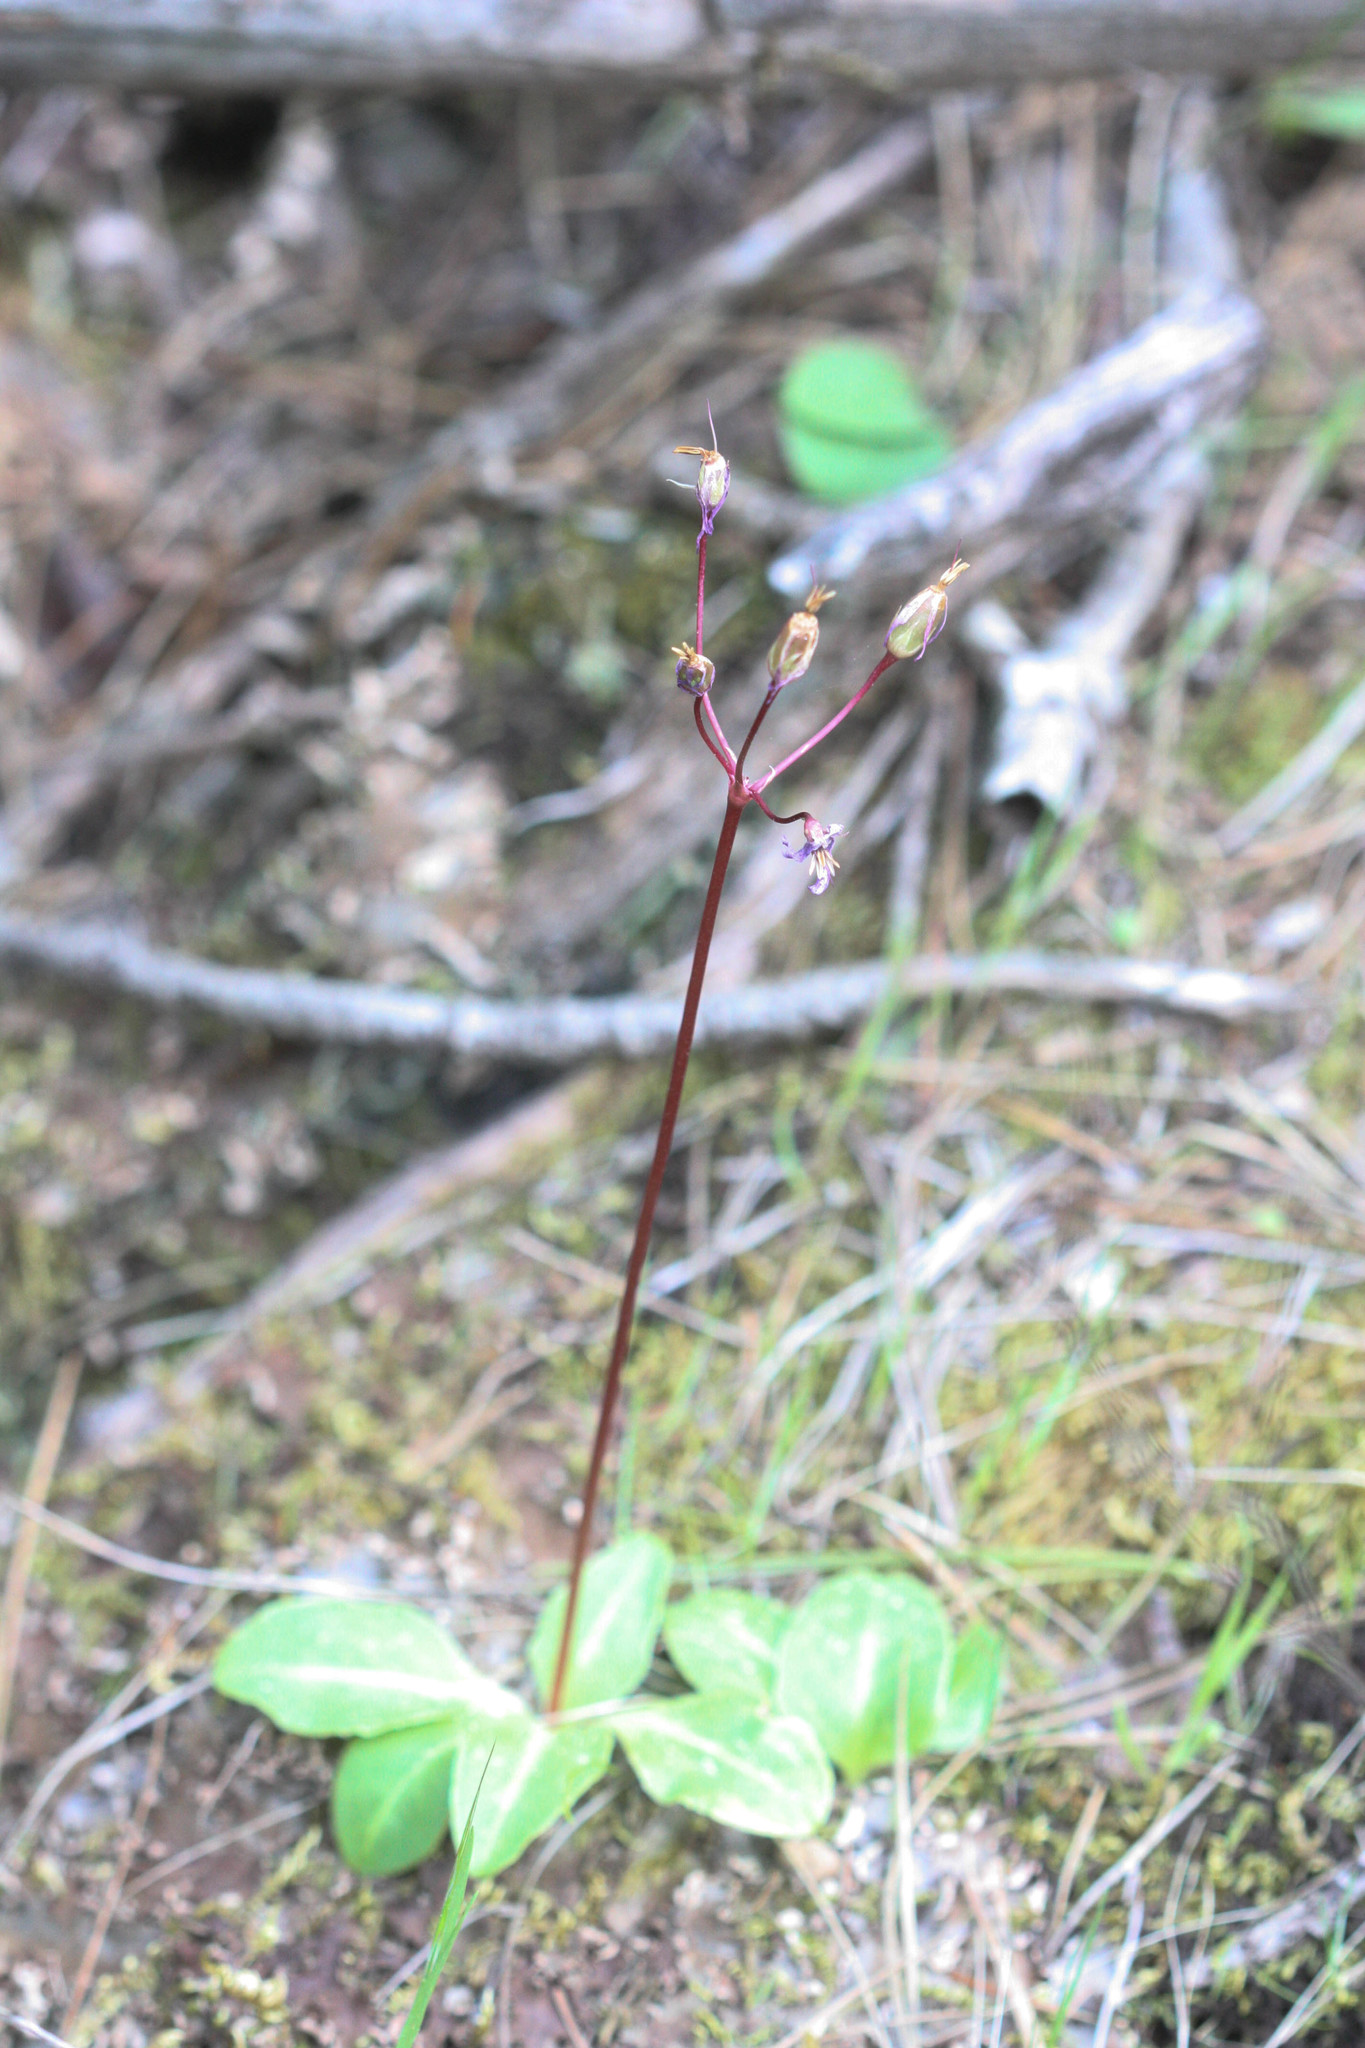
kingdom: Plantae
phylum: Tracheophyta
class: Magnoliopsida
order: Ericales
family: Primulaceae
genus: Dodecatheon
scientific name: Dodecatheon hendersonii
